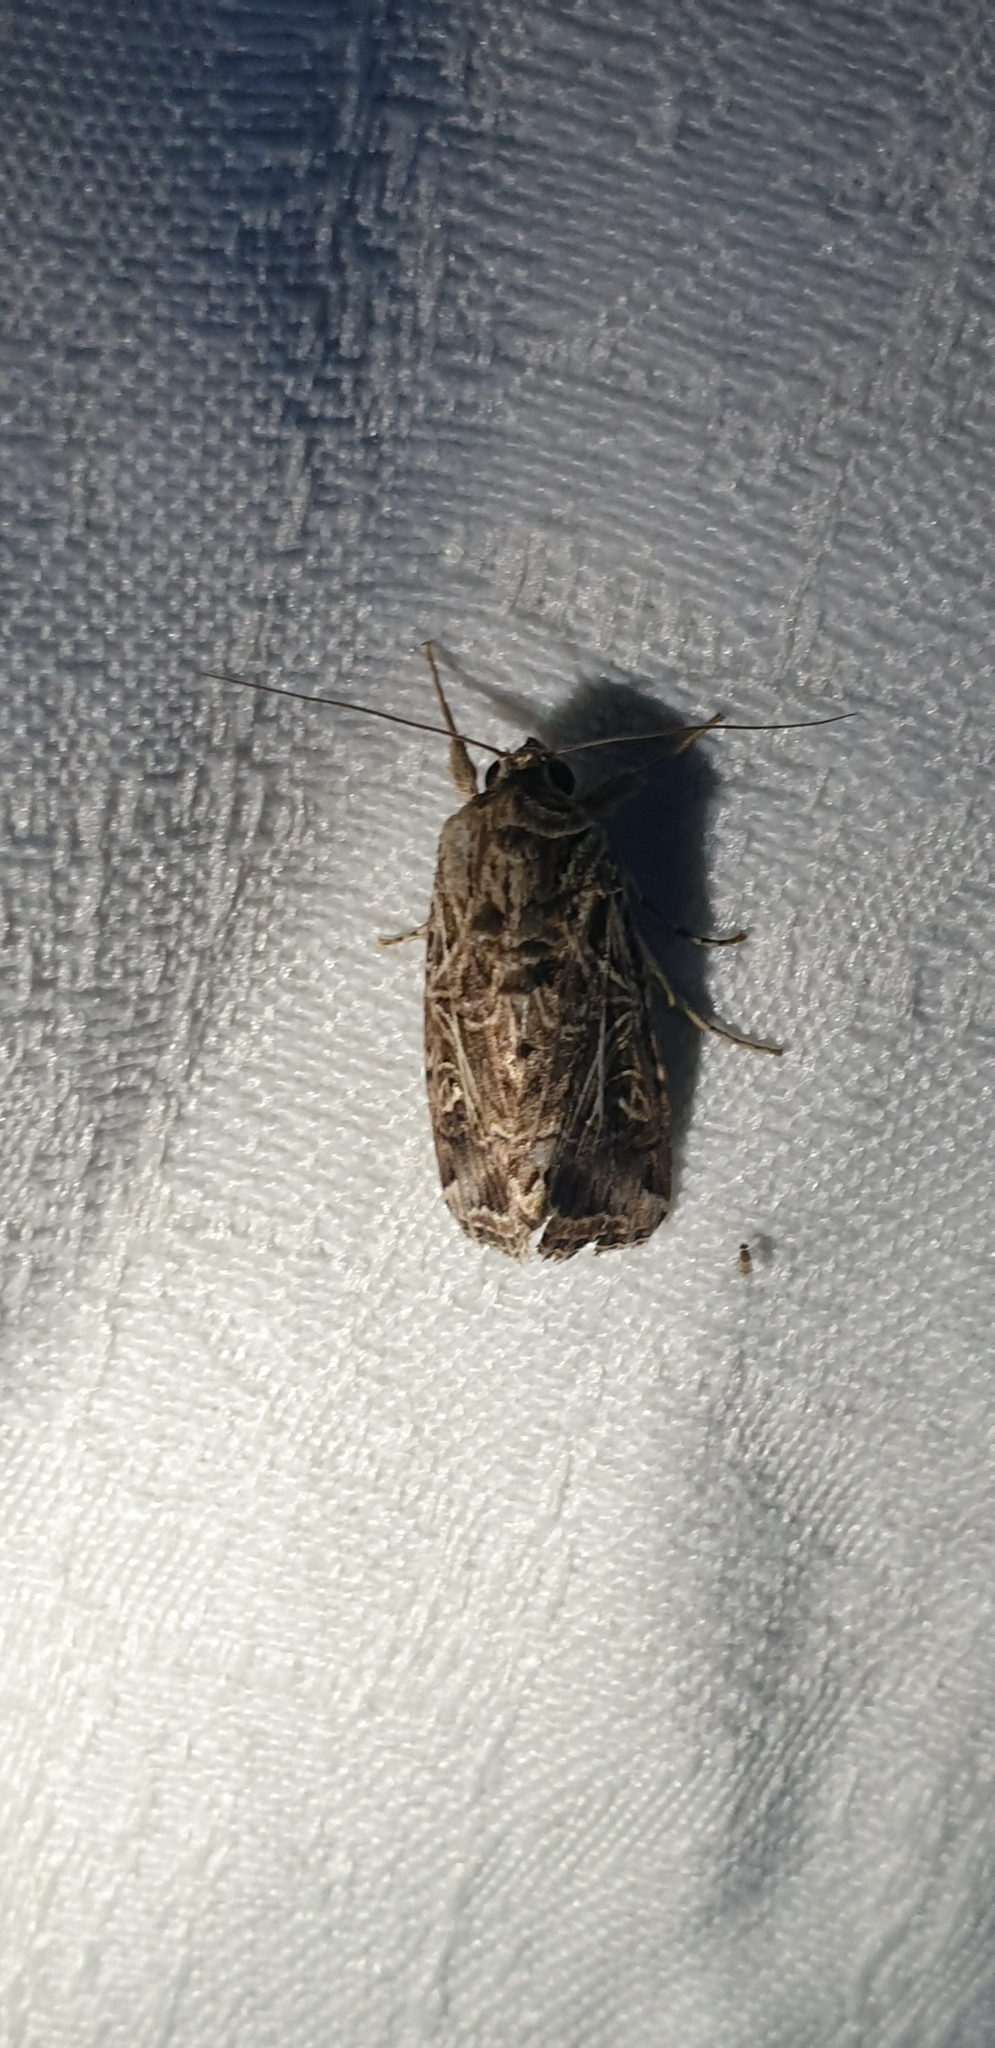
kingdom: Animalia
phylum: Arthropoda
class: Insecta
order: Lepidoptera
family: Noctuidae
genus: Spodoptera
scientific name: Spodoptera litura
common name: Asian cotton leafworm
